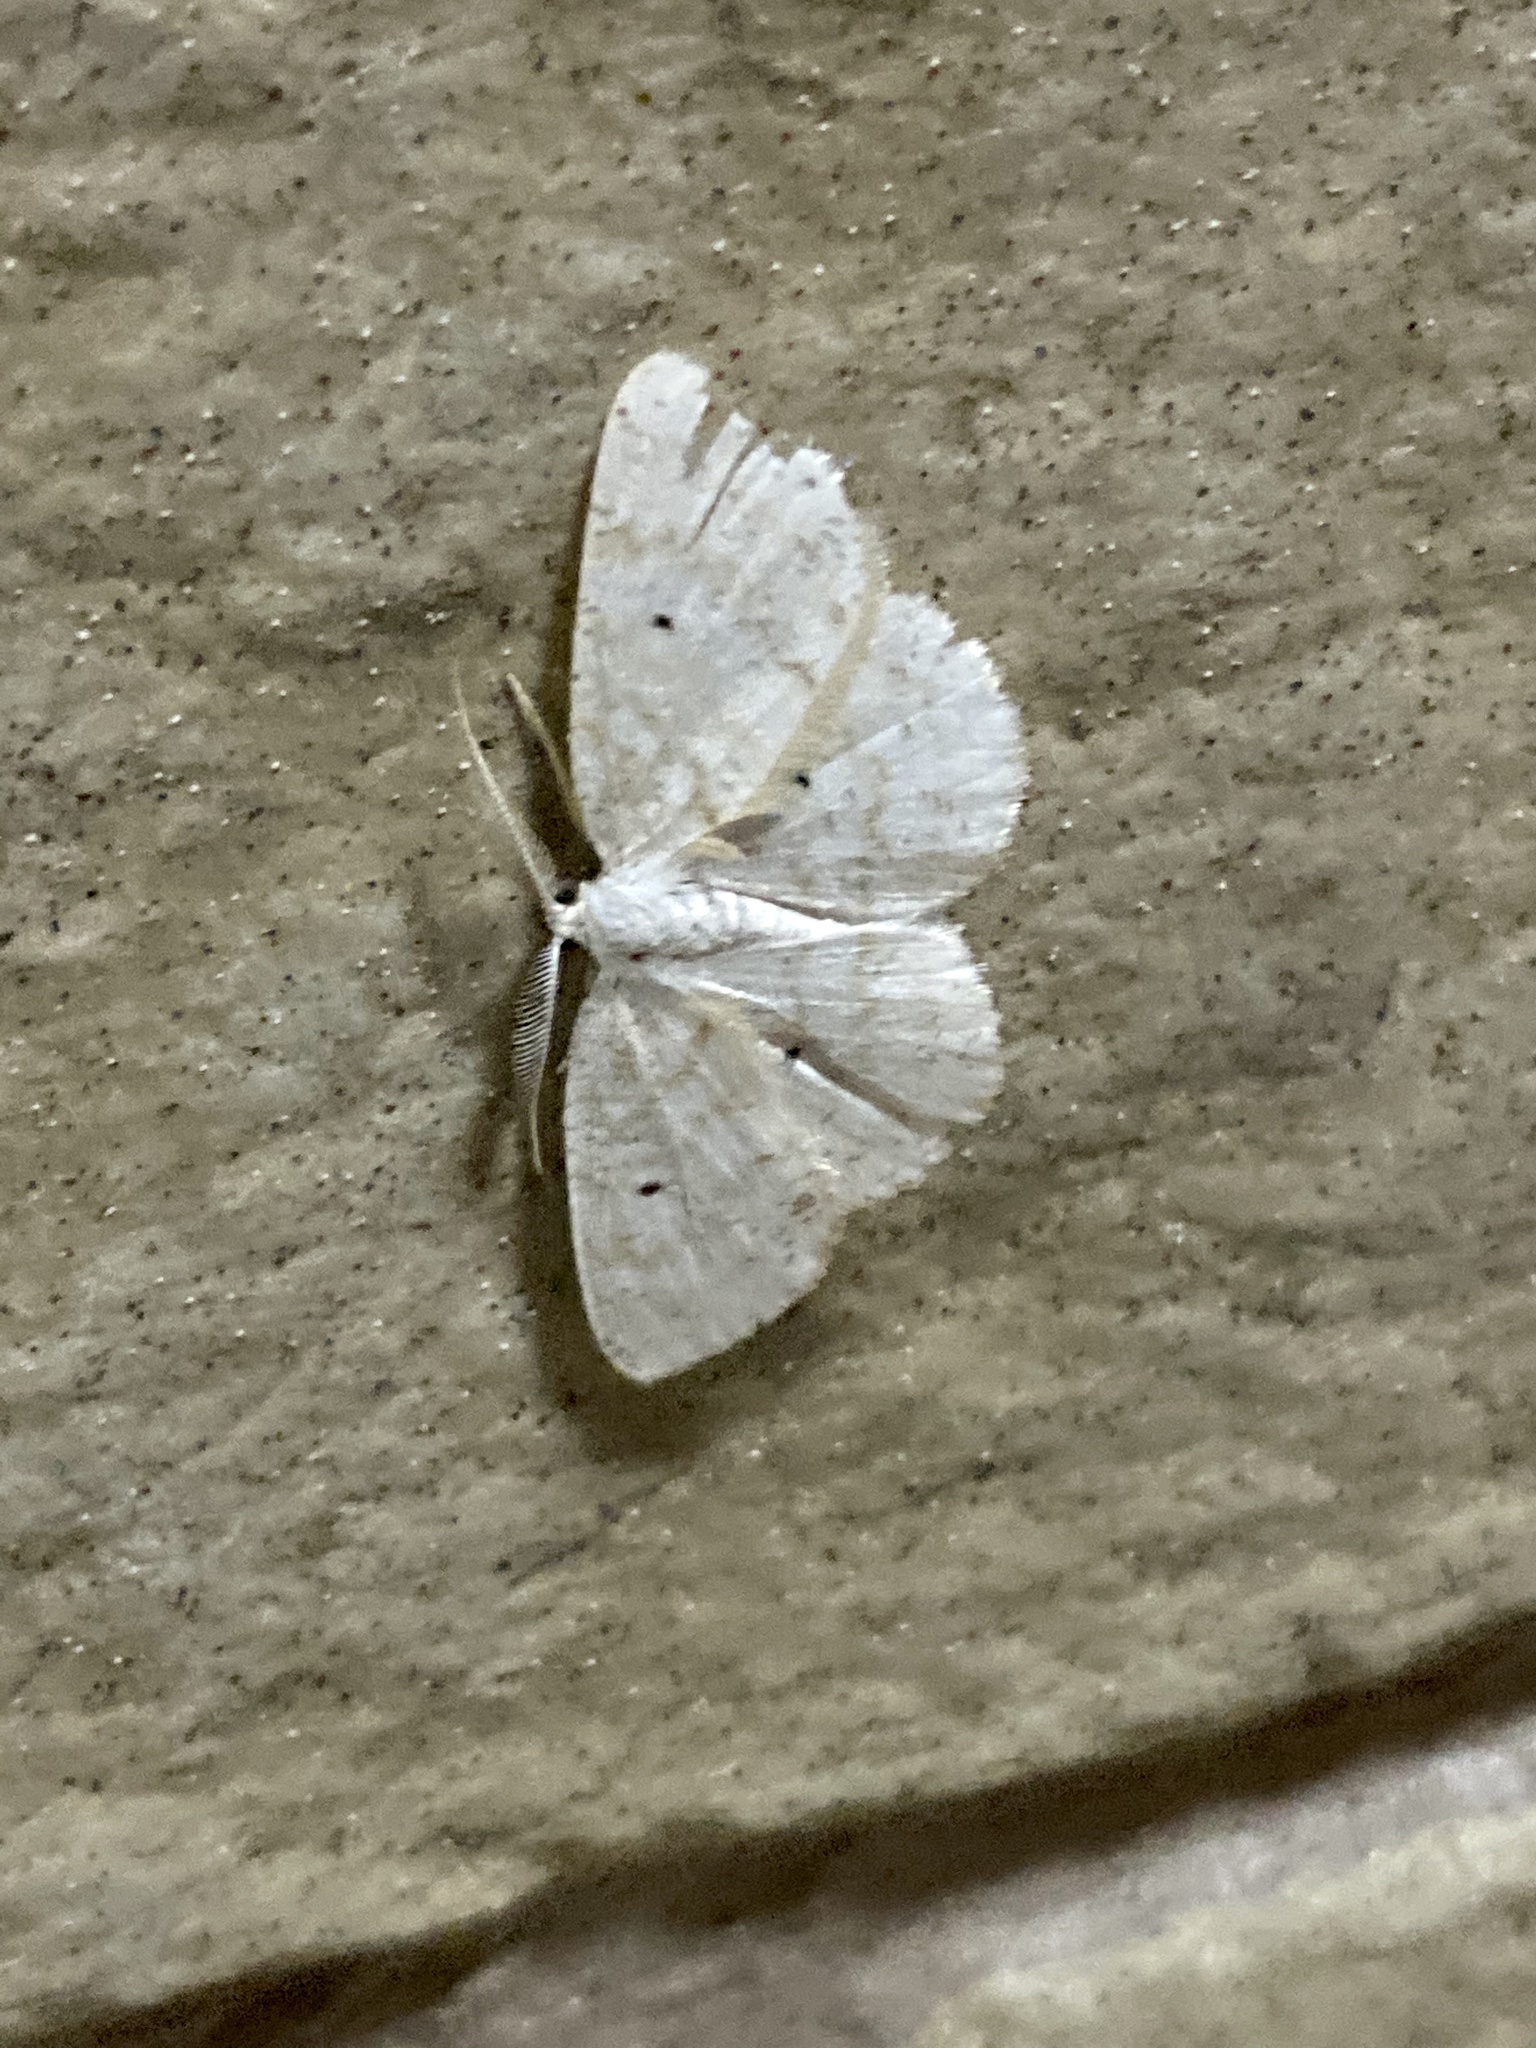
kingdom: Animalia
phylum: Arthropoda
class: Insecta
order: Lepidoptera
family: Geometridae
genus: Cabera
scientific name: Cabera purus
